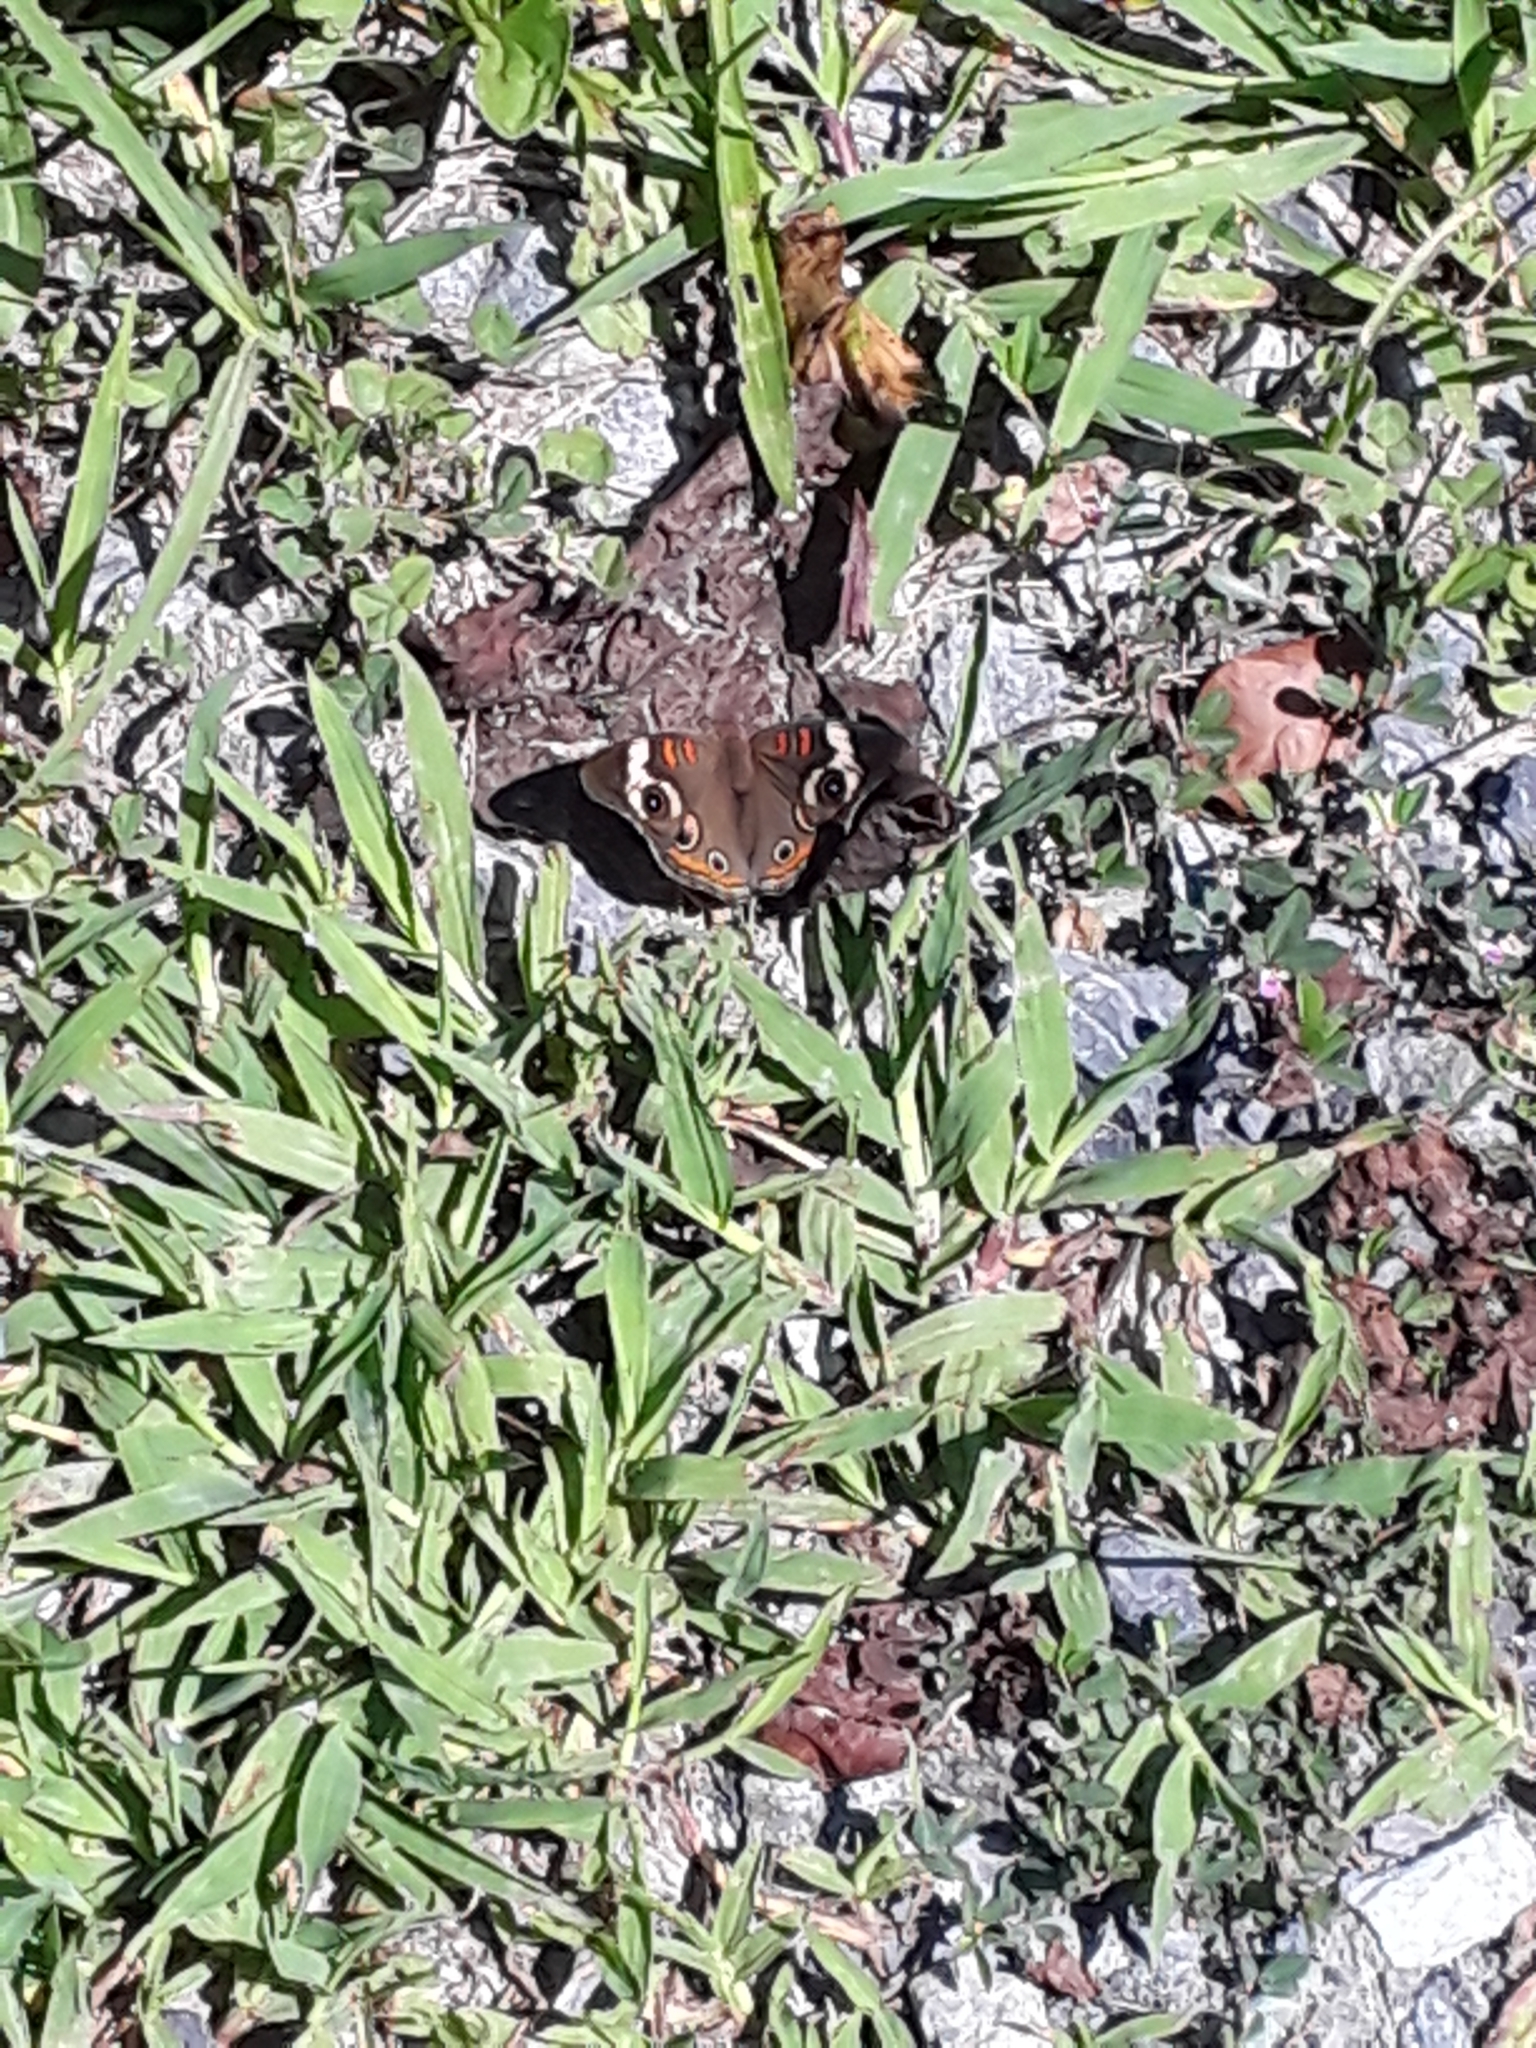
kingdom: Animalia
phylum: Arthropoda
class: Insecta
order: Lepidoptera
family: Nymphalidae
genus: Junonia
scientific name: Junonia coenia
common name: Common buckeye
